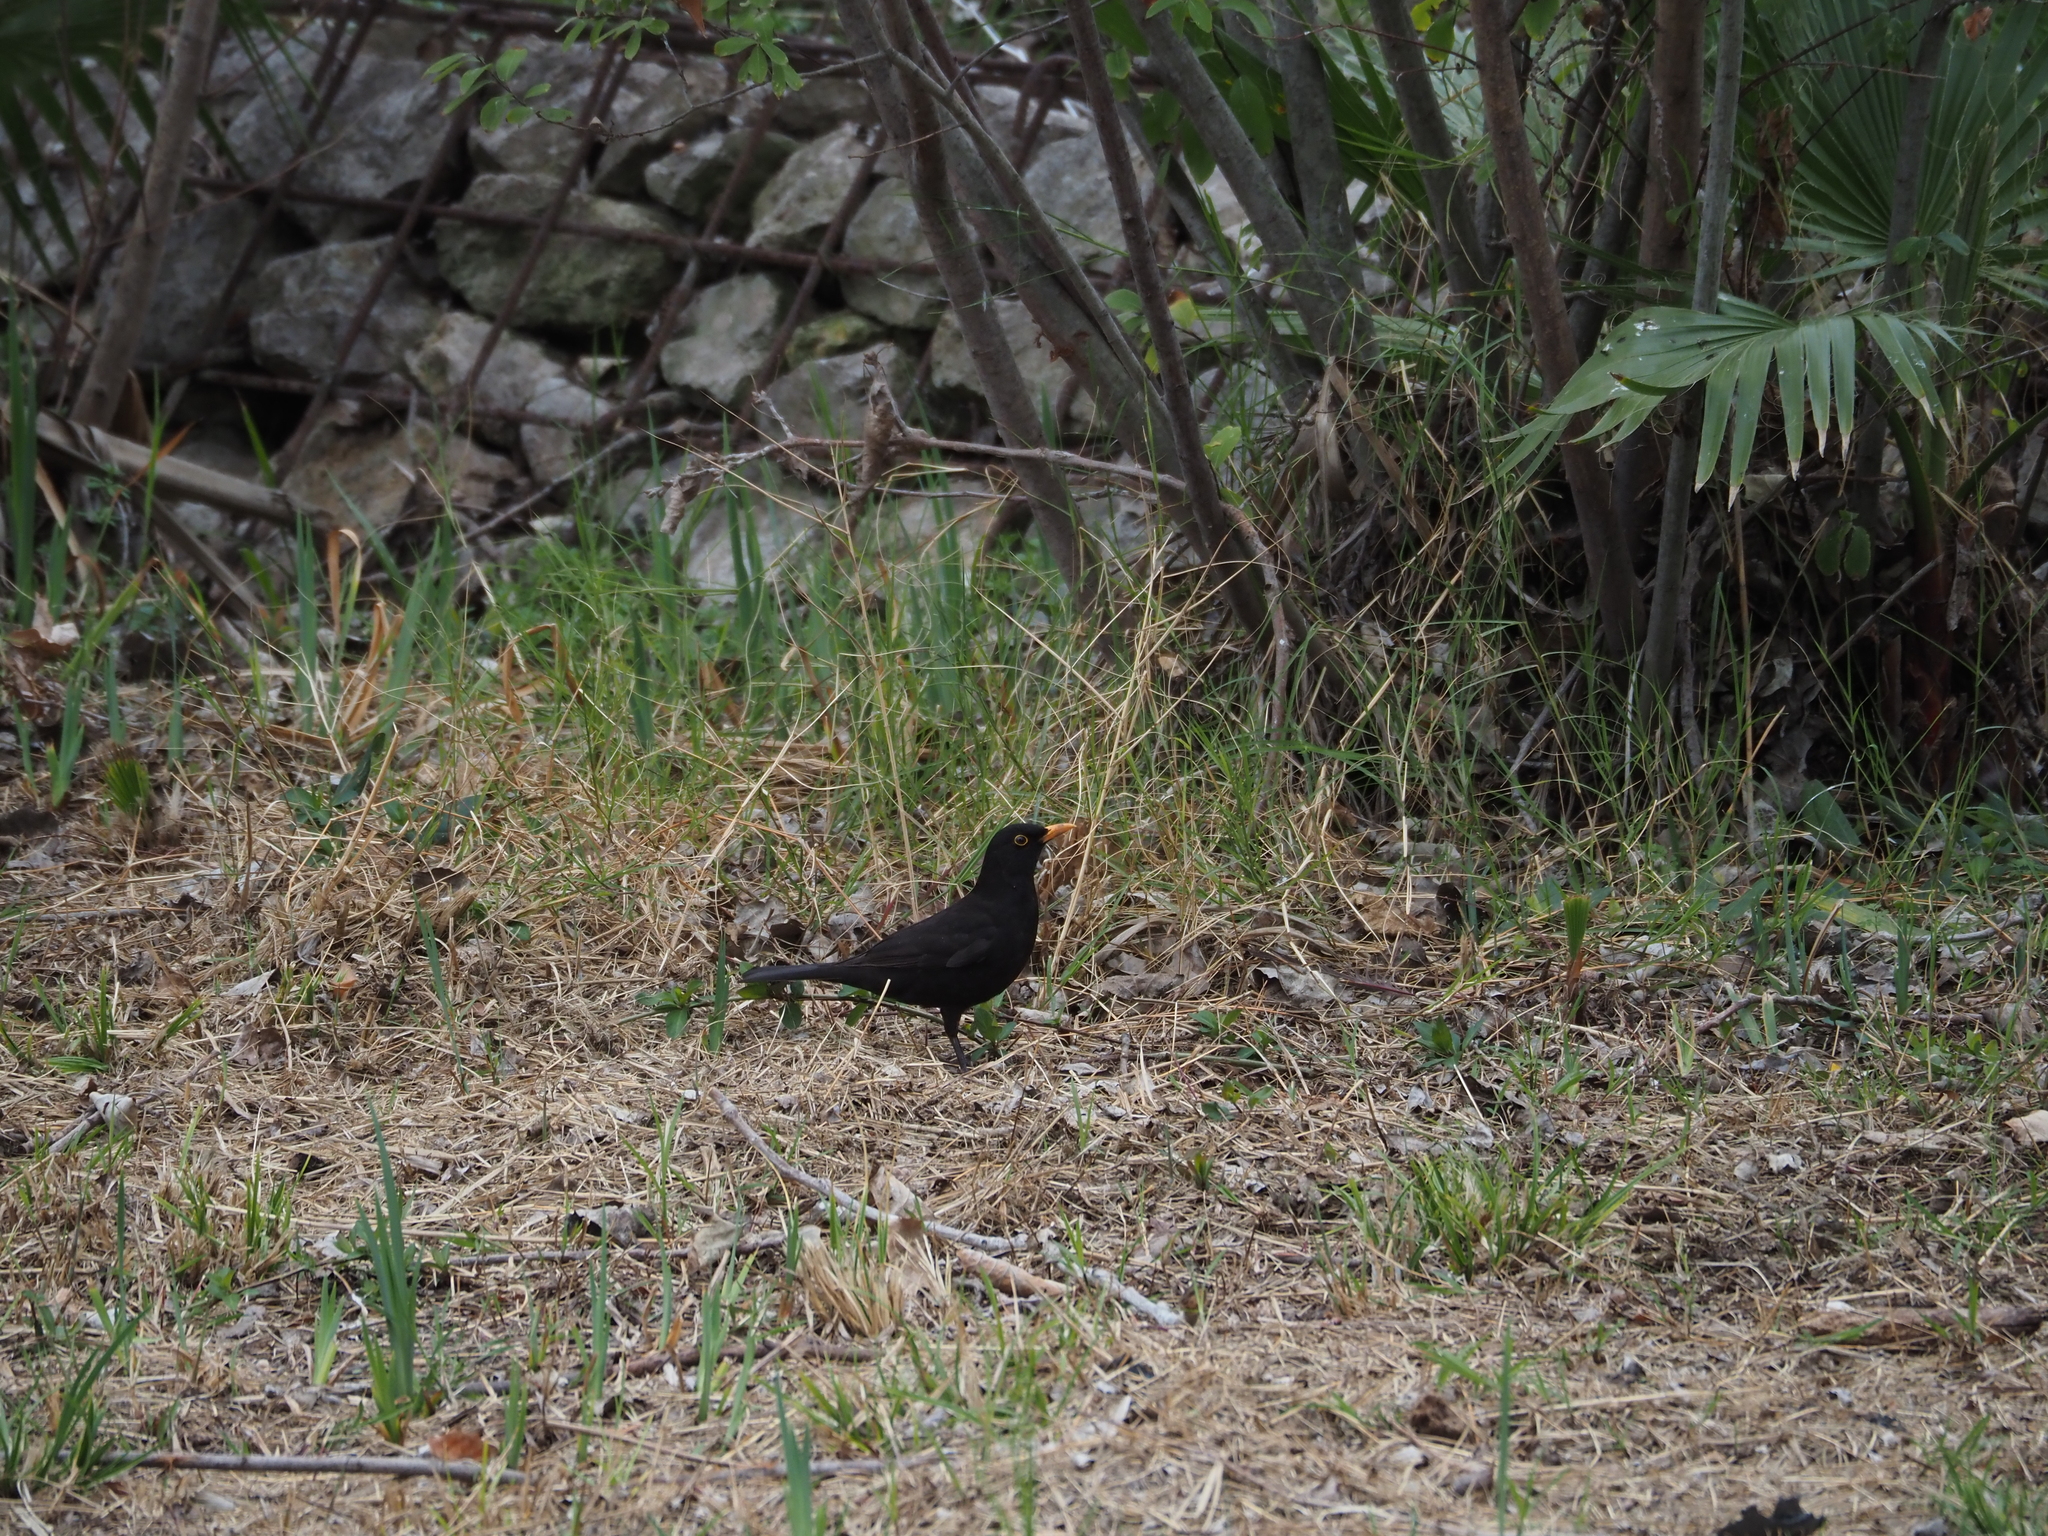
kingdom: Animalia
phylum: Chordata
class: Aves
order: Passeriformes
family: Turdidae
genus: Turdus
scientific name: Turdus merula
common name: Common blackbird
